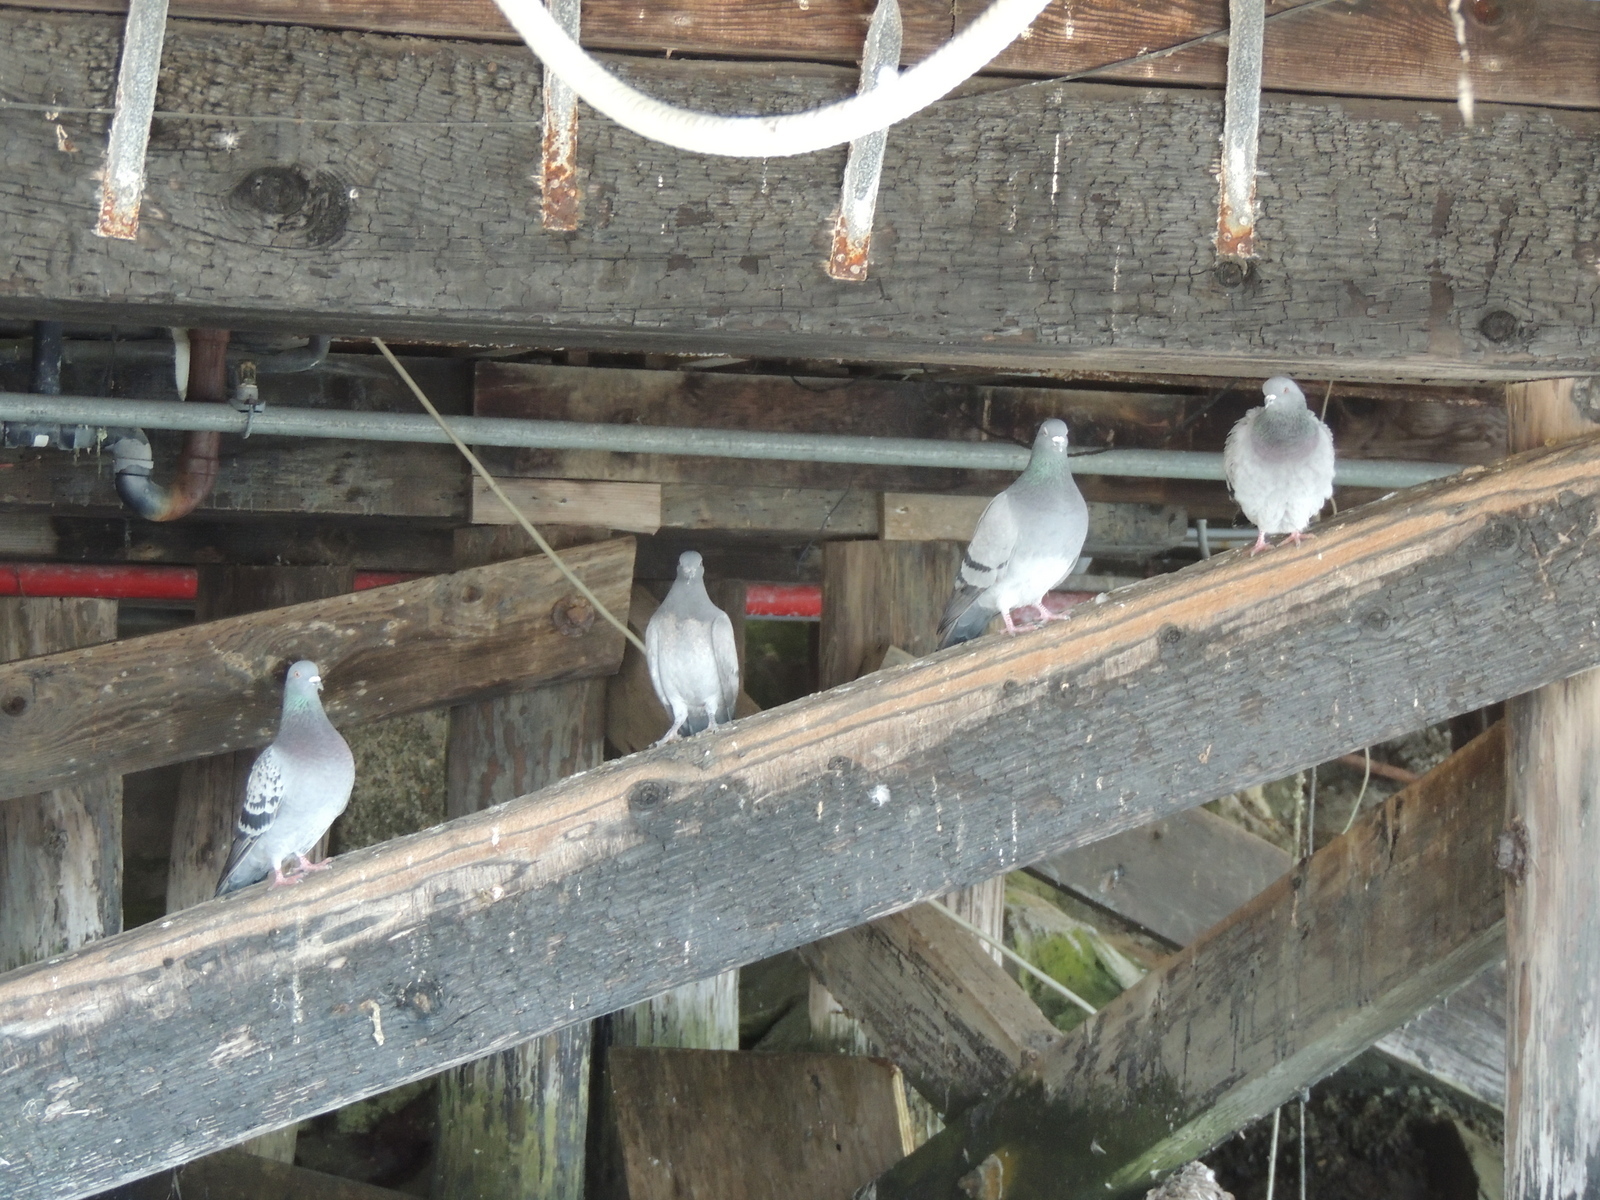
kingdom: Animalia
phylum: Chordata
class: Aves
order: Columbiformes
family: Columbidae
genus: Columba
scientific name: Columba livia
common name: Rock pigeon
